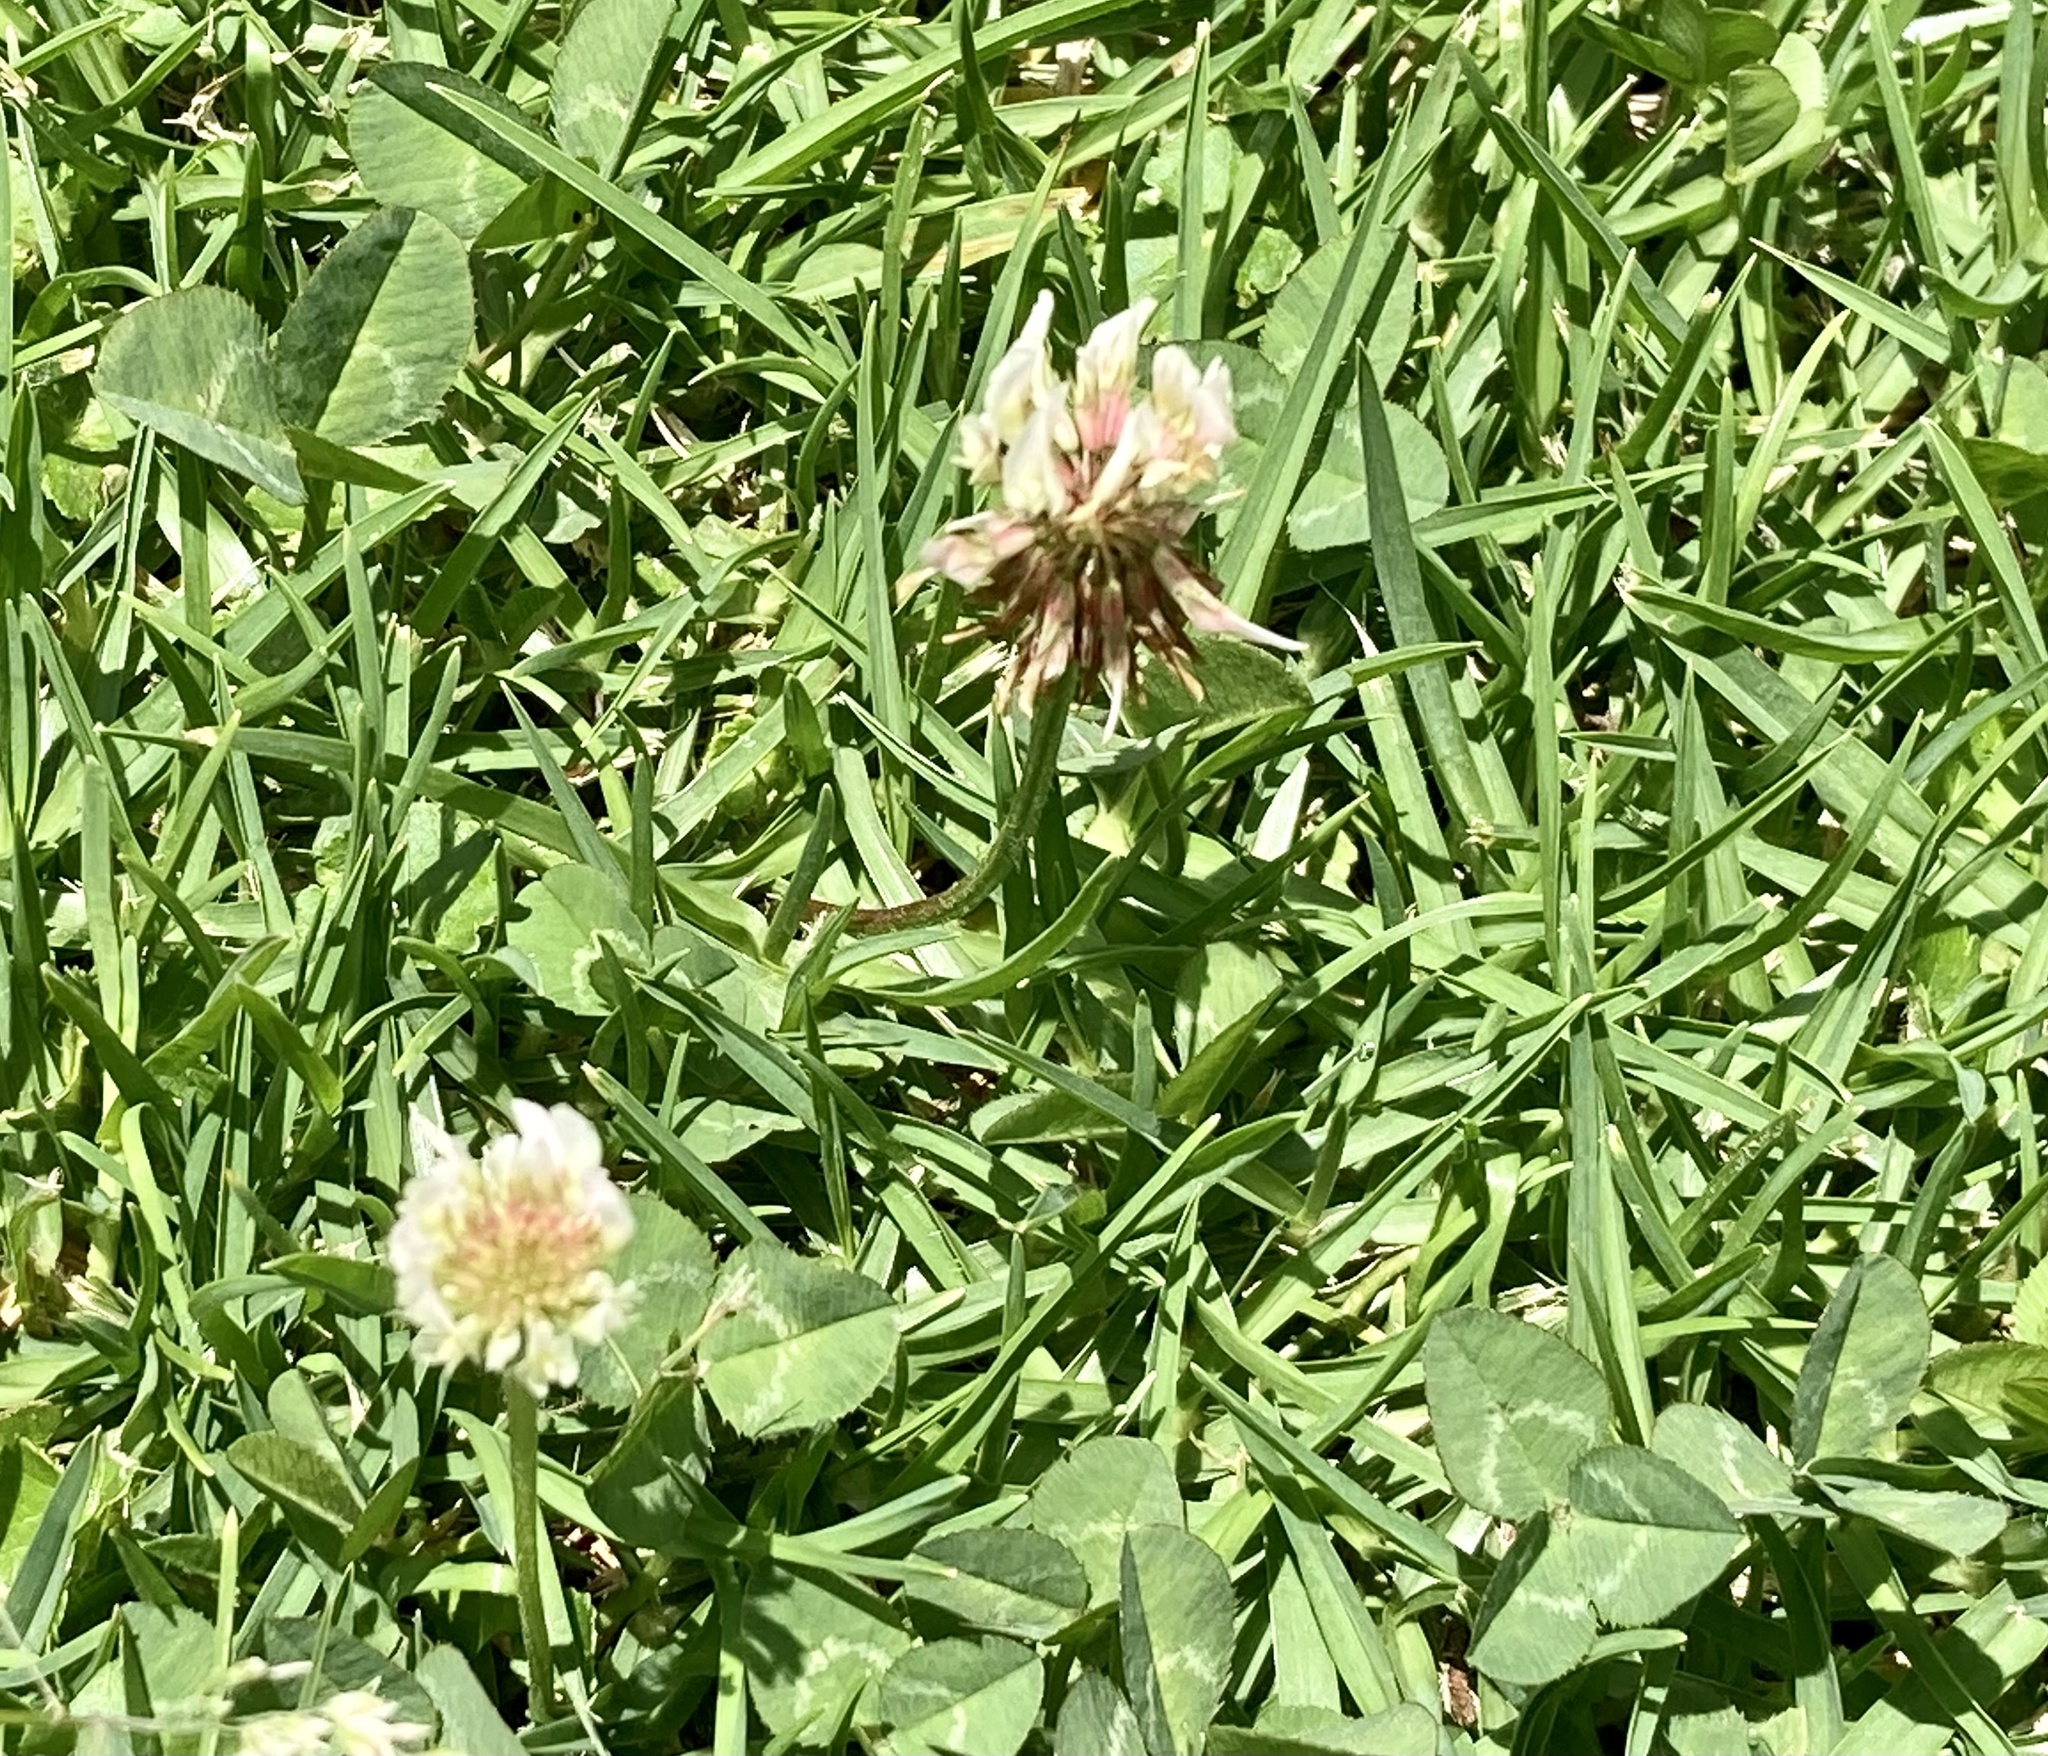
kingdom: Plantae
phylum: Tracheophyta
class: Magnoliopsida
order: Fabales
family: Fabaceae
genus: Trifolium
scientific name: Trifolium repens
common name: White clover
